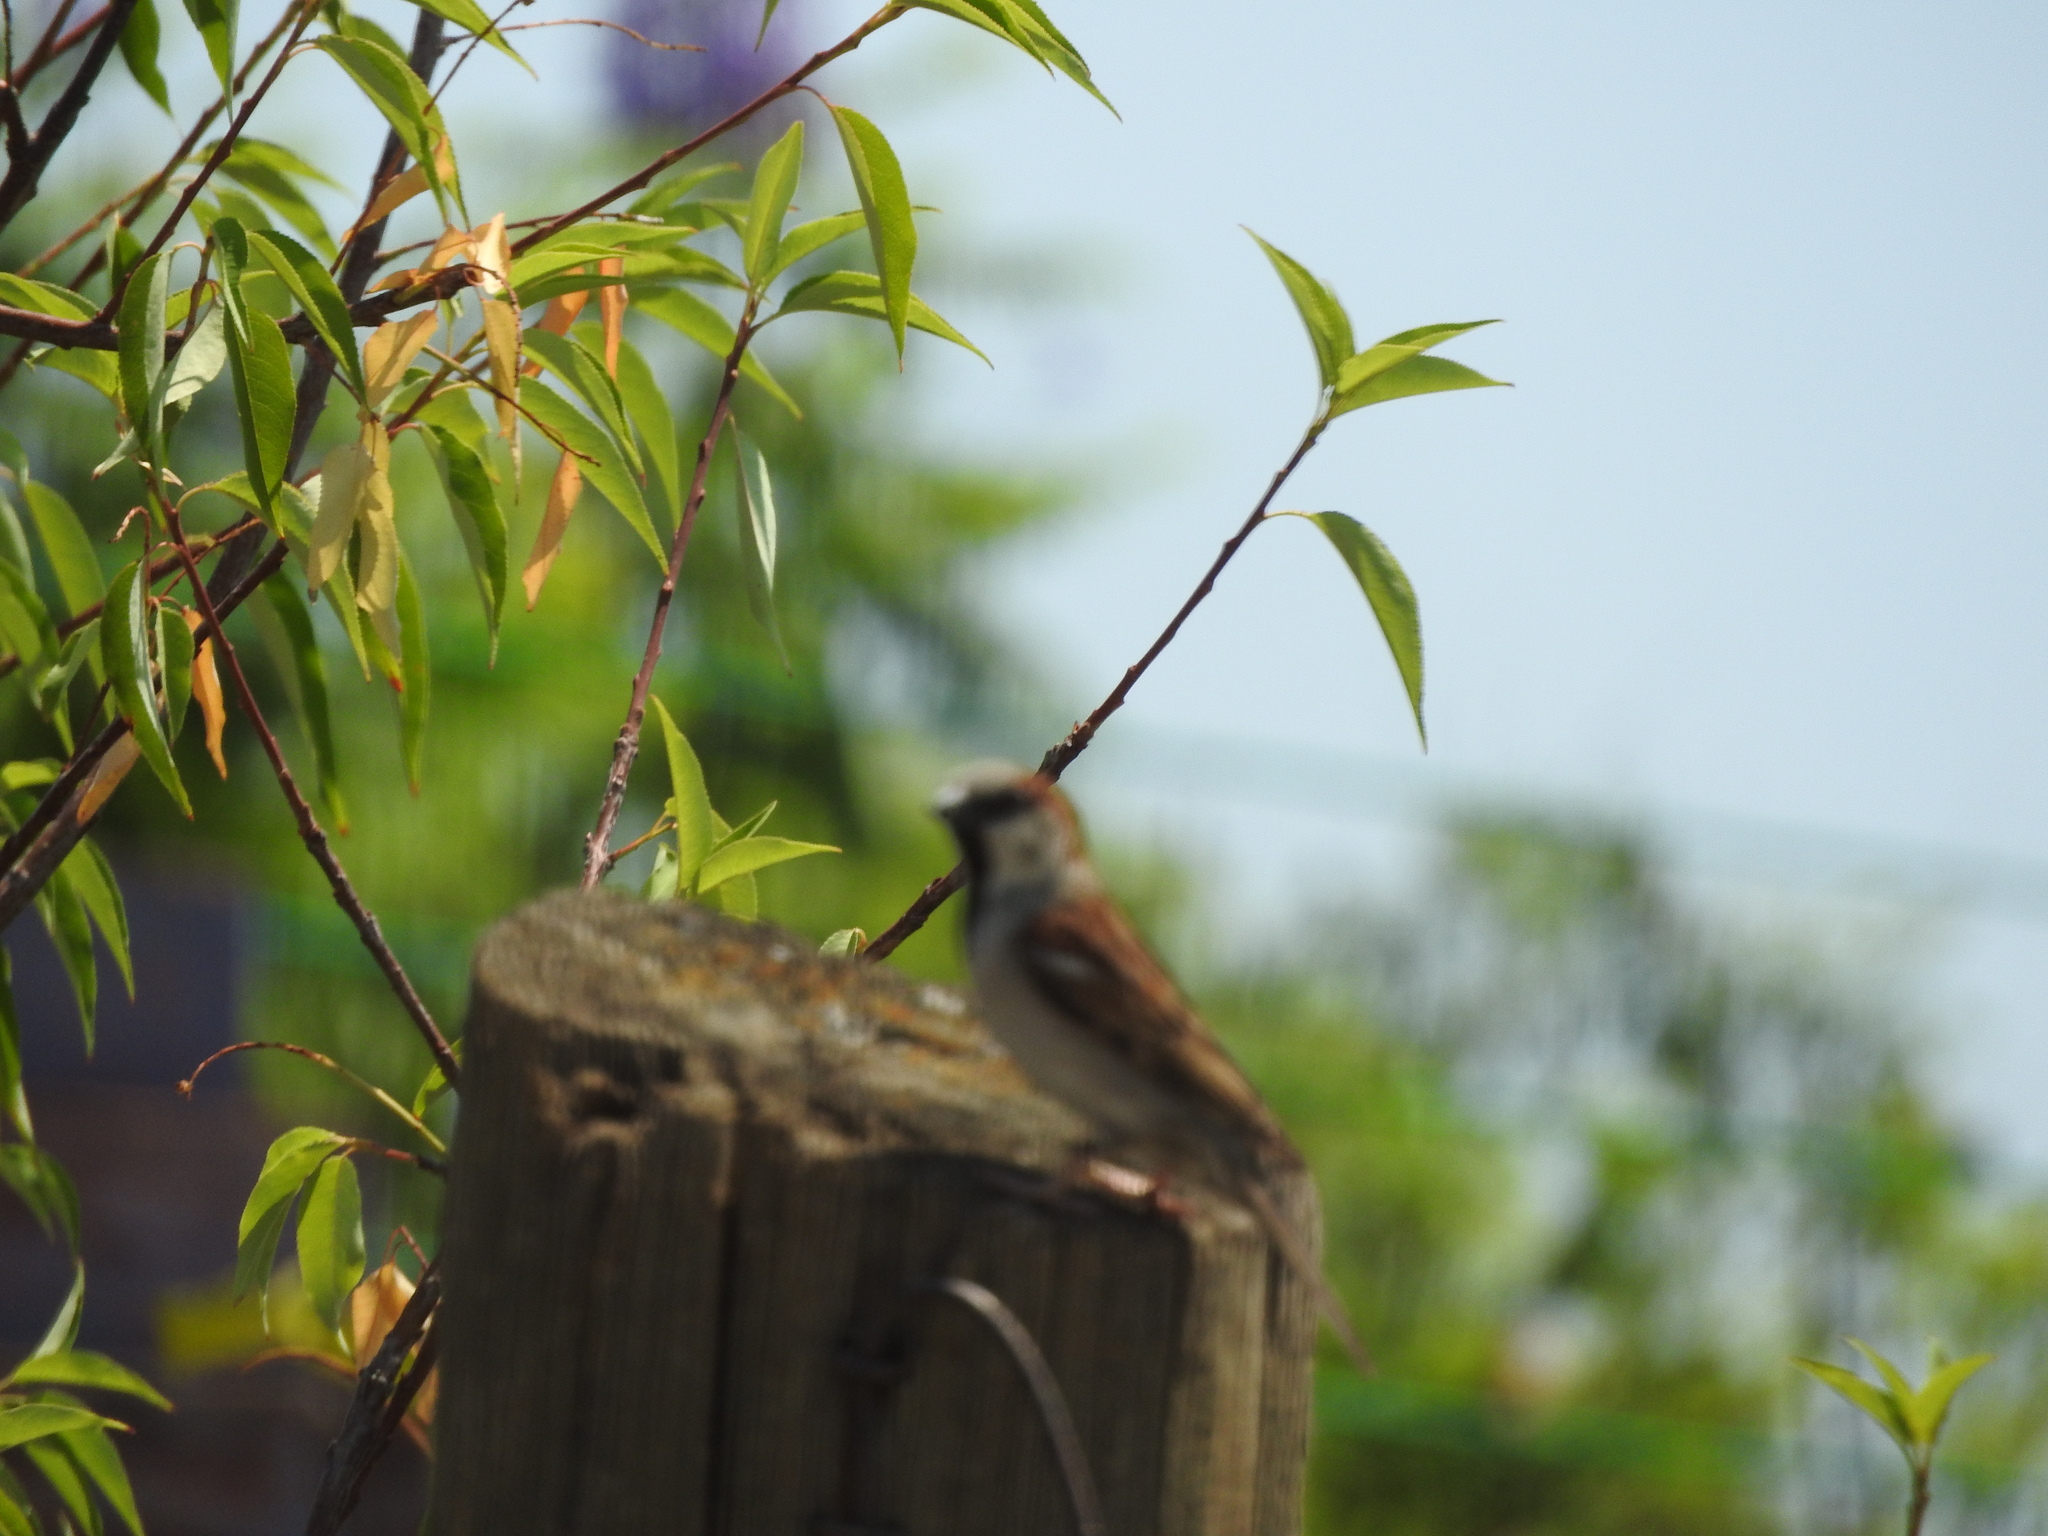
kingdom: Animalia
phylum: Chordata
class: Aves
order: Passeriformes
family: Passeridae
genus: Passer
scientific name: Passer domesticus
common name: House sparrow
